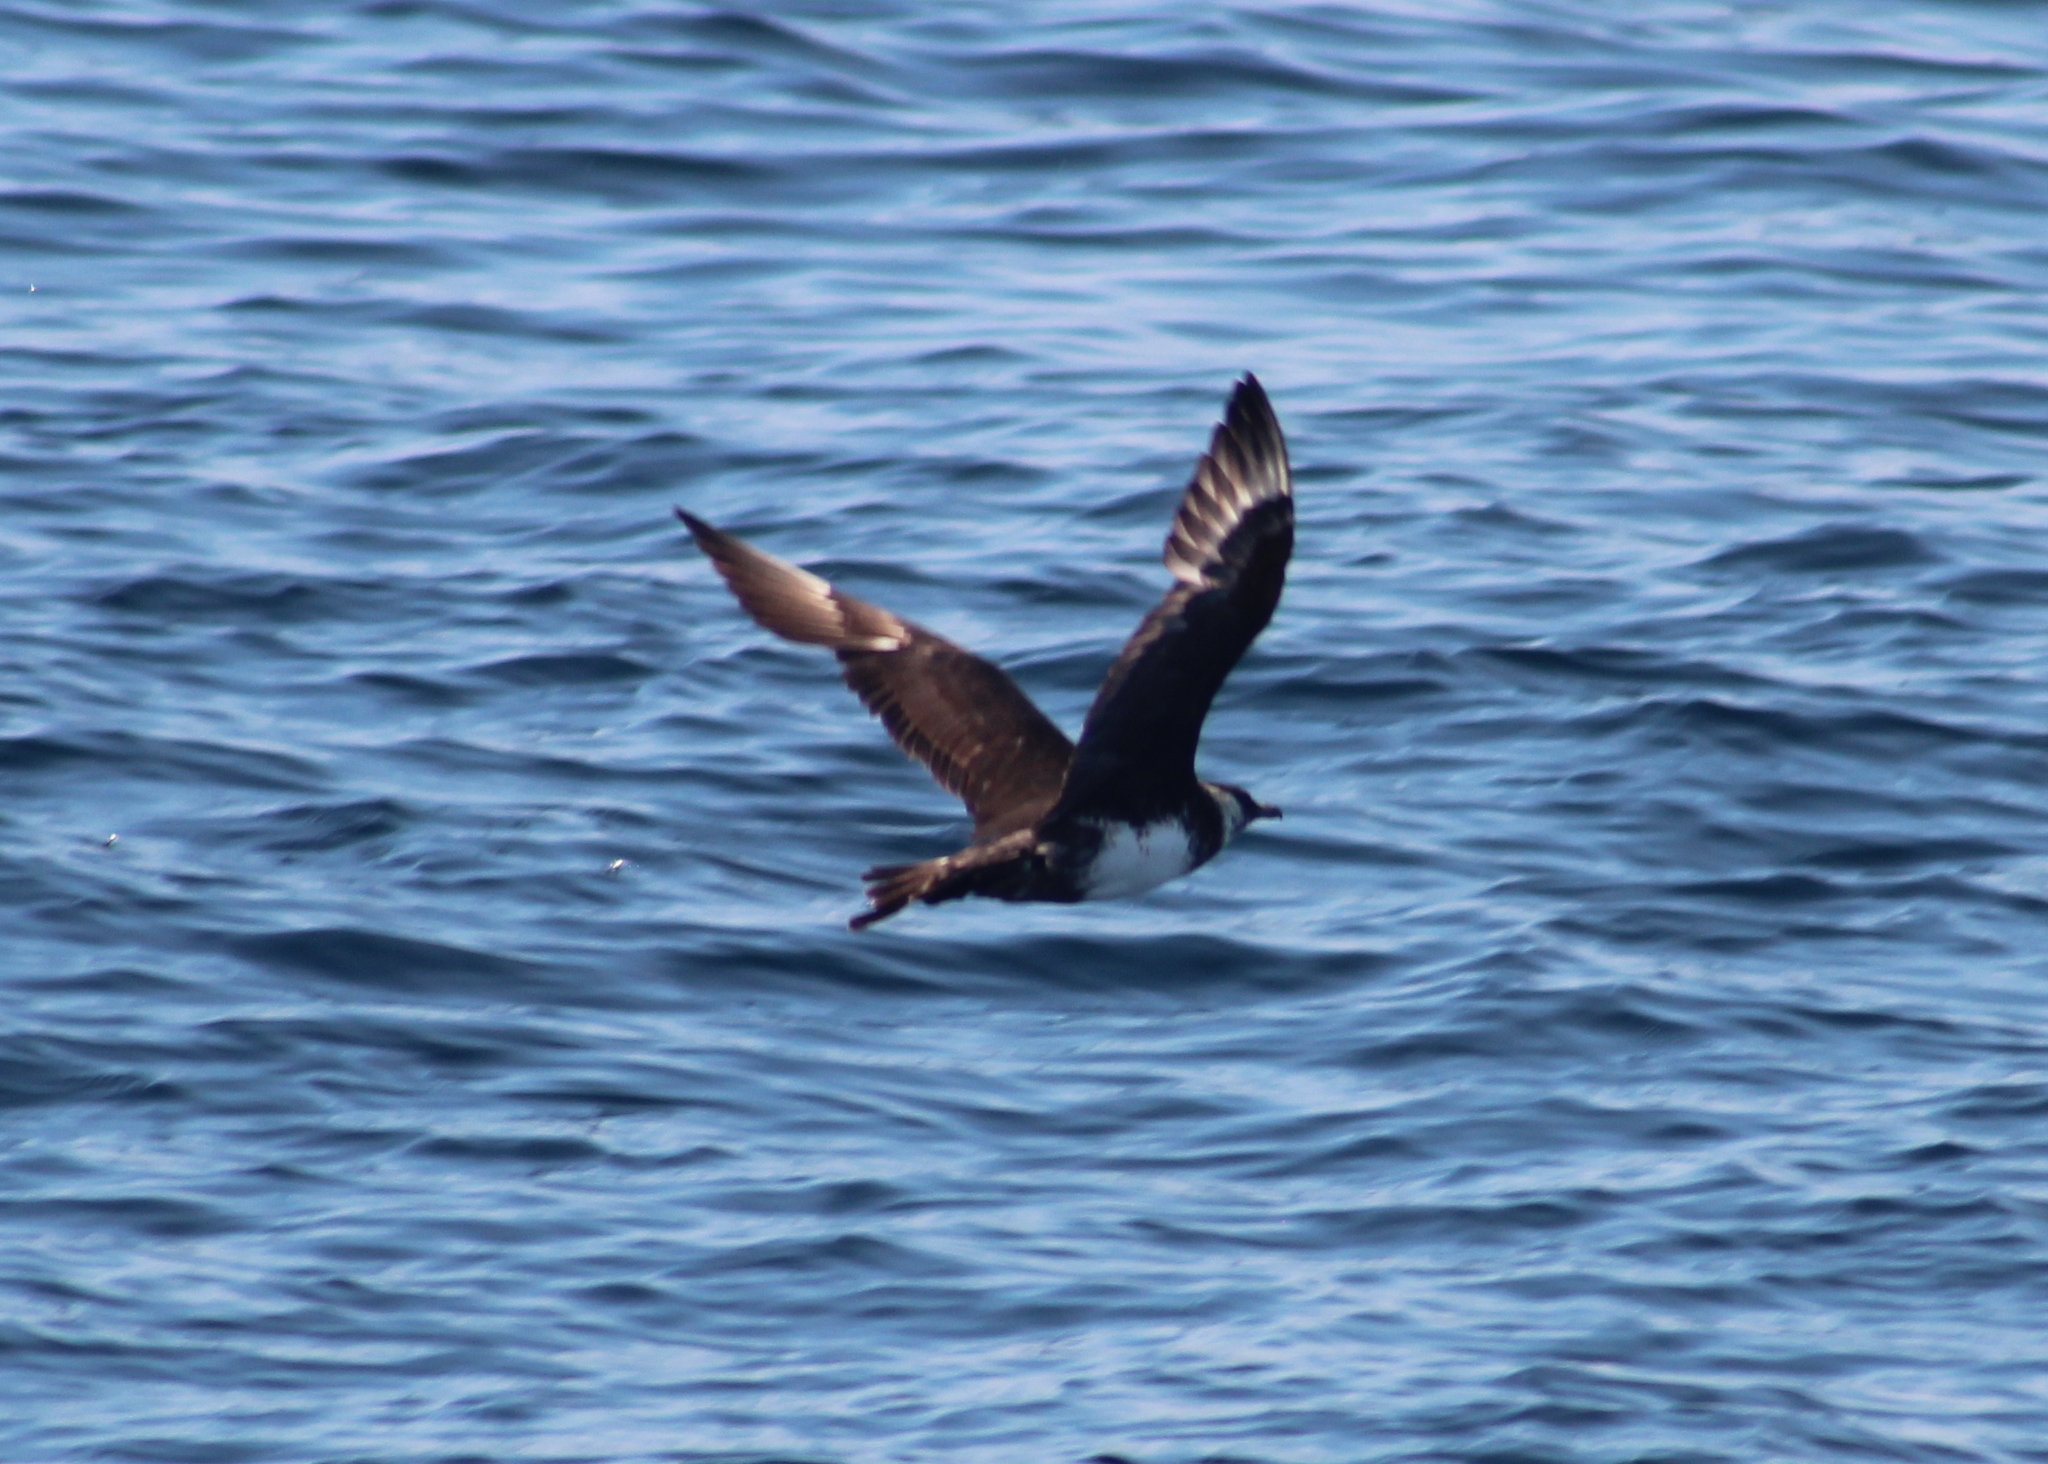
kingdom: Animalia
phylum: Chordata
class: Aves
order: Charadriiformes
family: Stercorariidae
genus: Stercorarius
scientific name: Stercorarius pomarinus
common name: Pomarine jaeger
